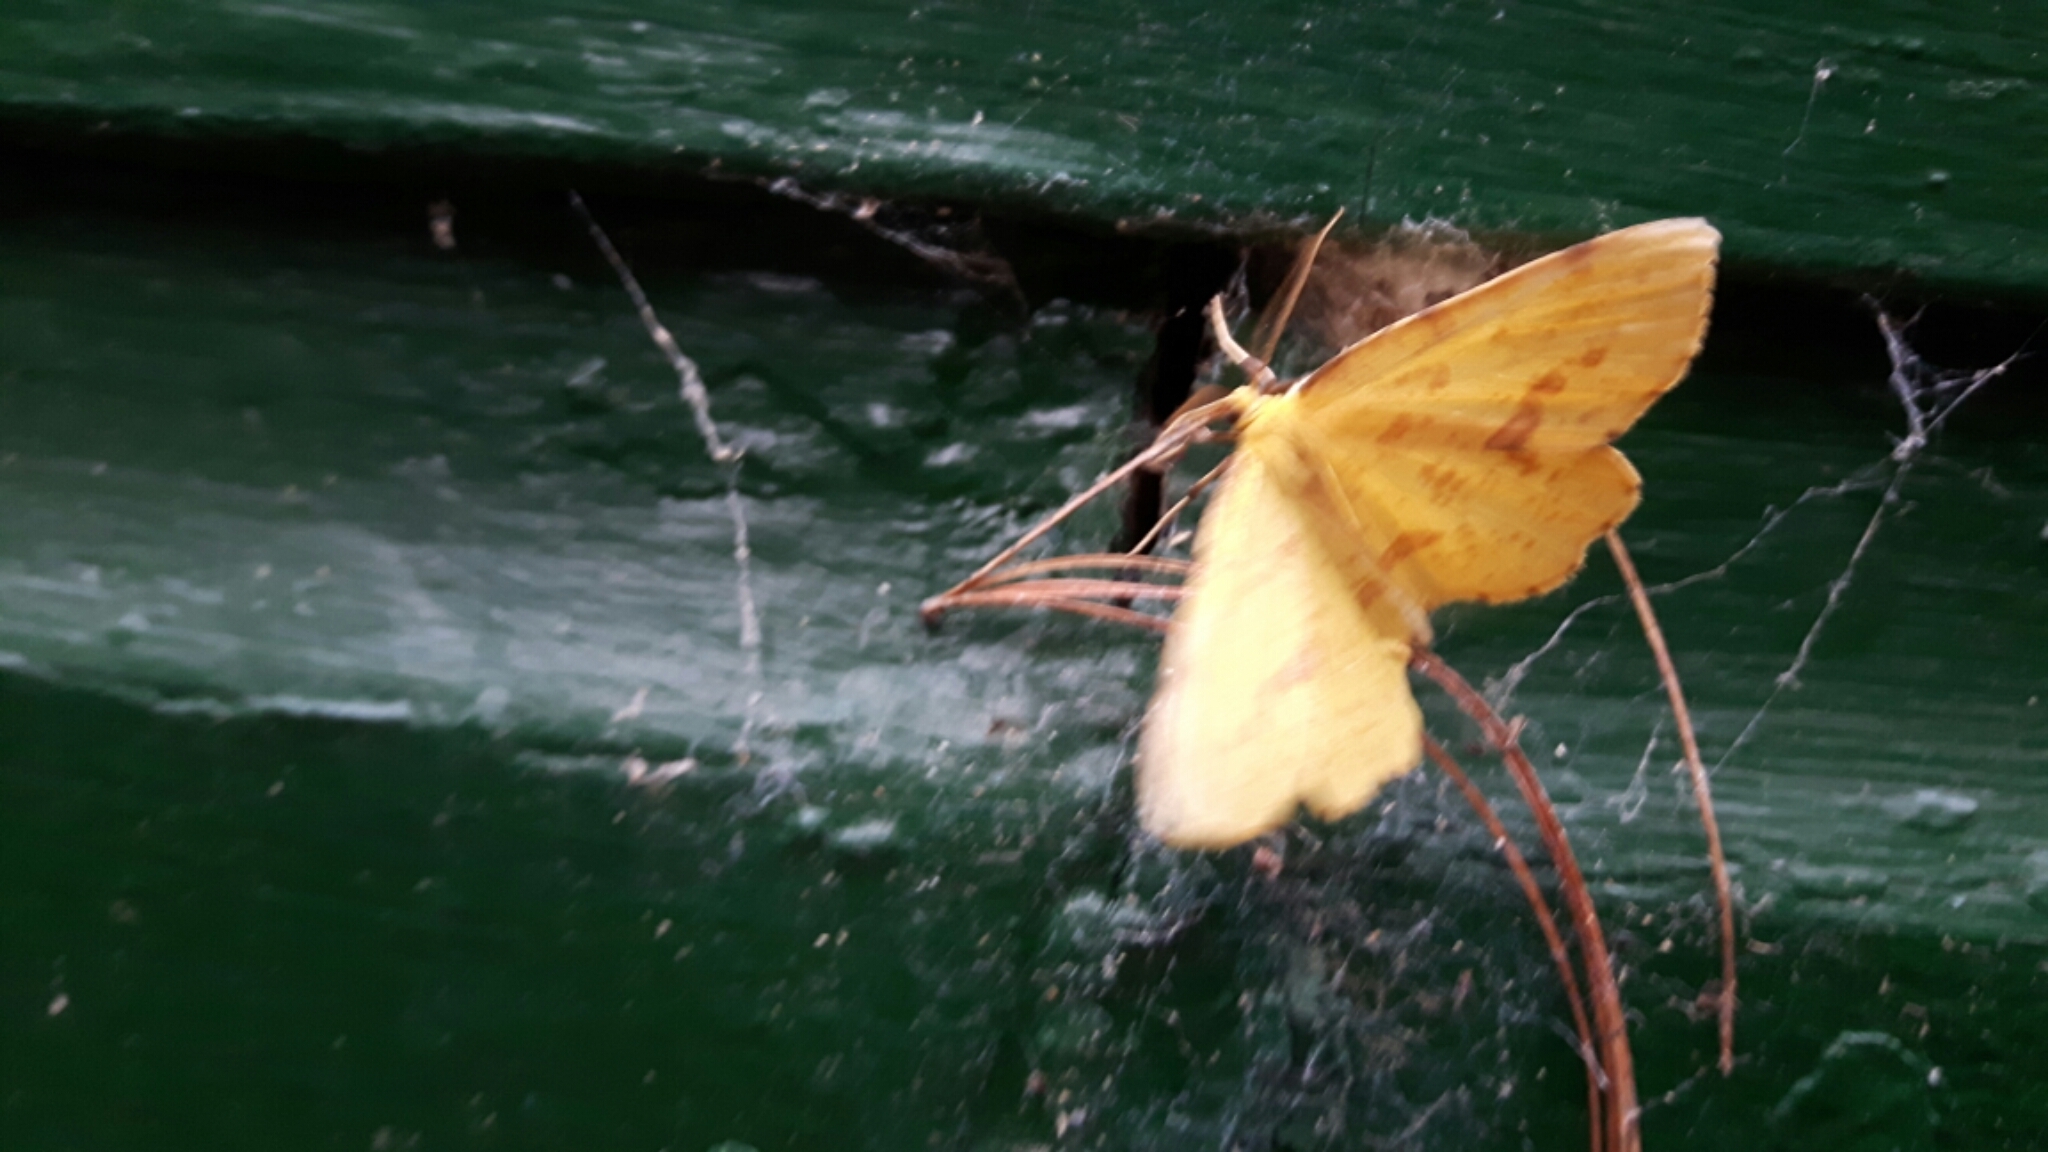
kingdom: Animalia
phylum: Arthropoda
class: Insecta
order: Lepidoptera
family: Geometridae
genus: Xanthotype
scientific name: Xanthotype
